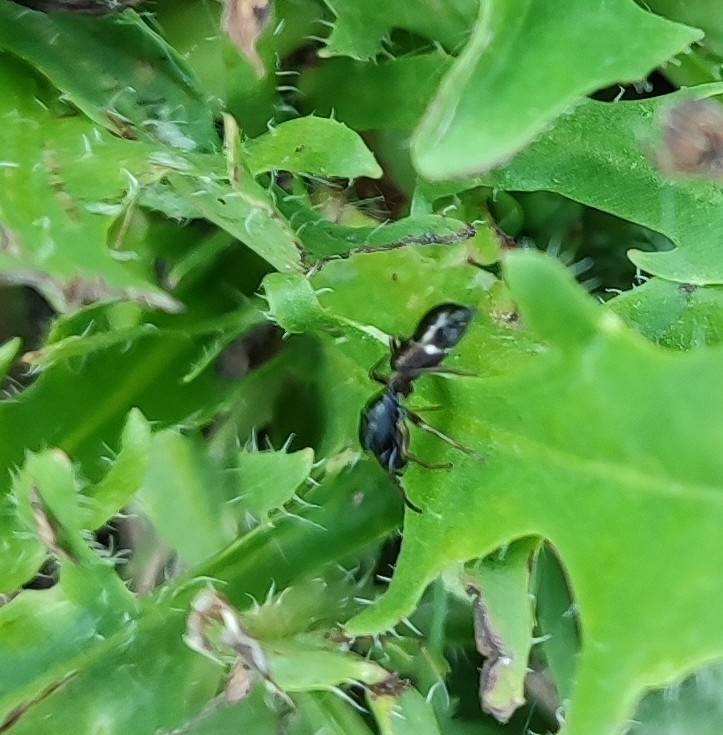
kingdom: Animalia
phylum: Arthropoda
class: Arachnida
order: Araneae
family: Salticidae
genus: Myrmarachne
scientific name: Myrmarachne formicaria
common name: Ant mimic jumping spider
